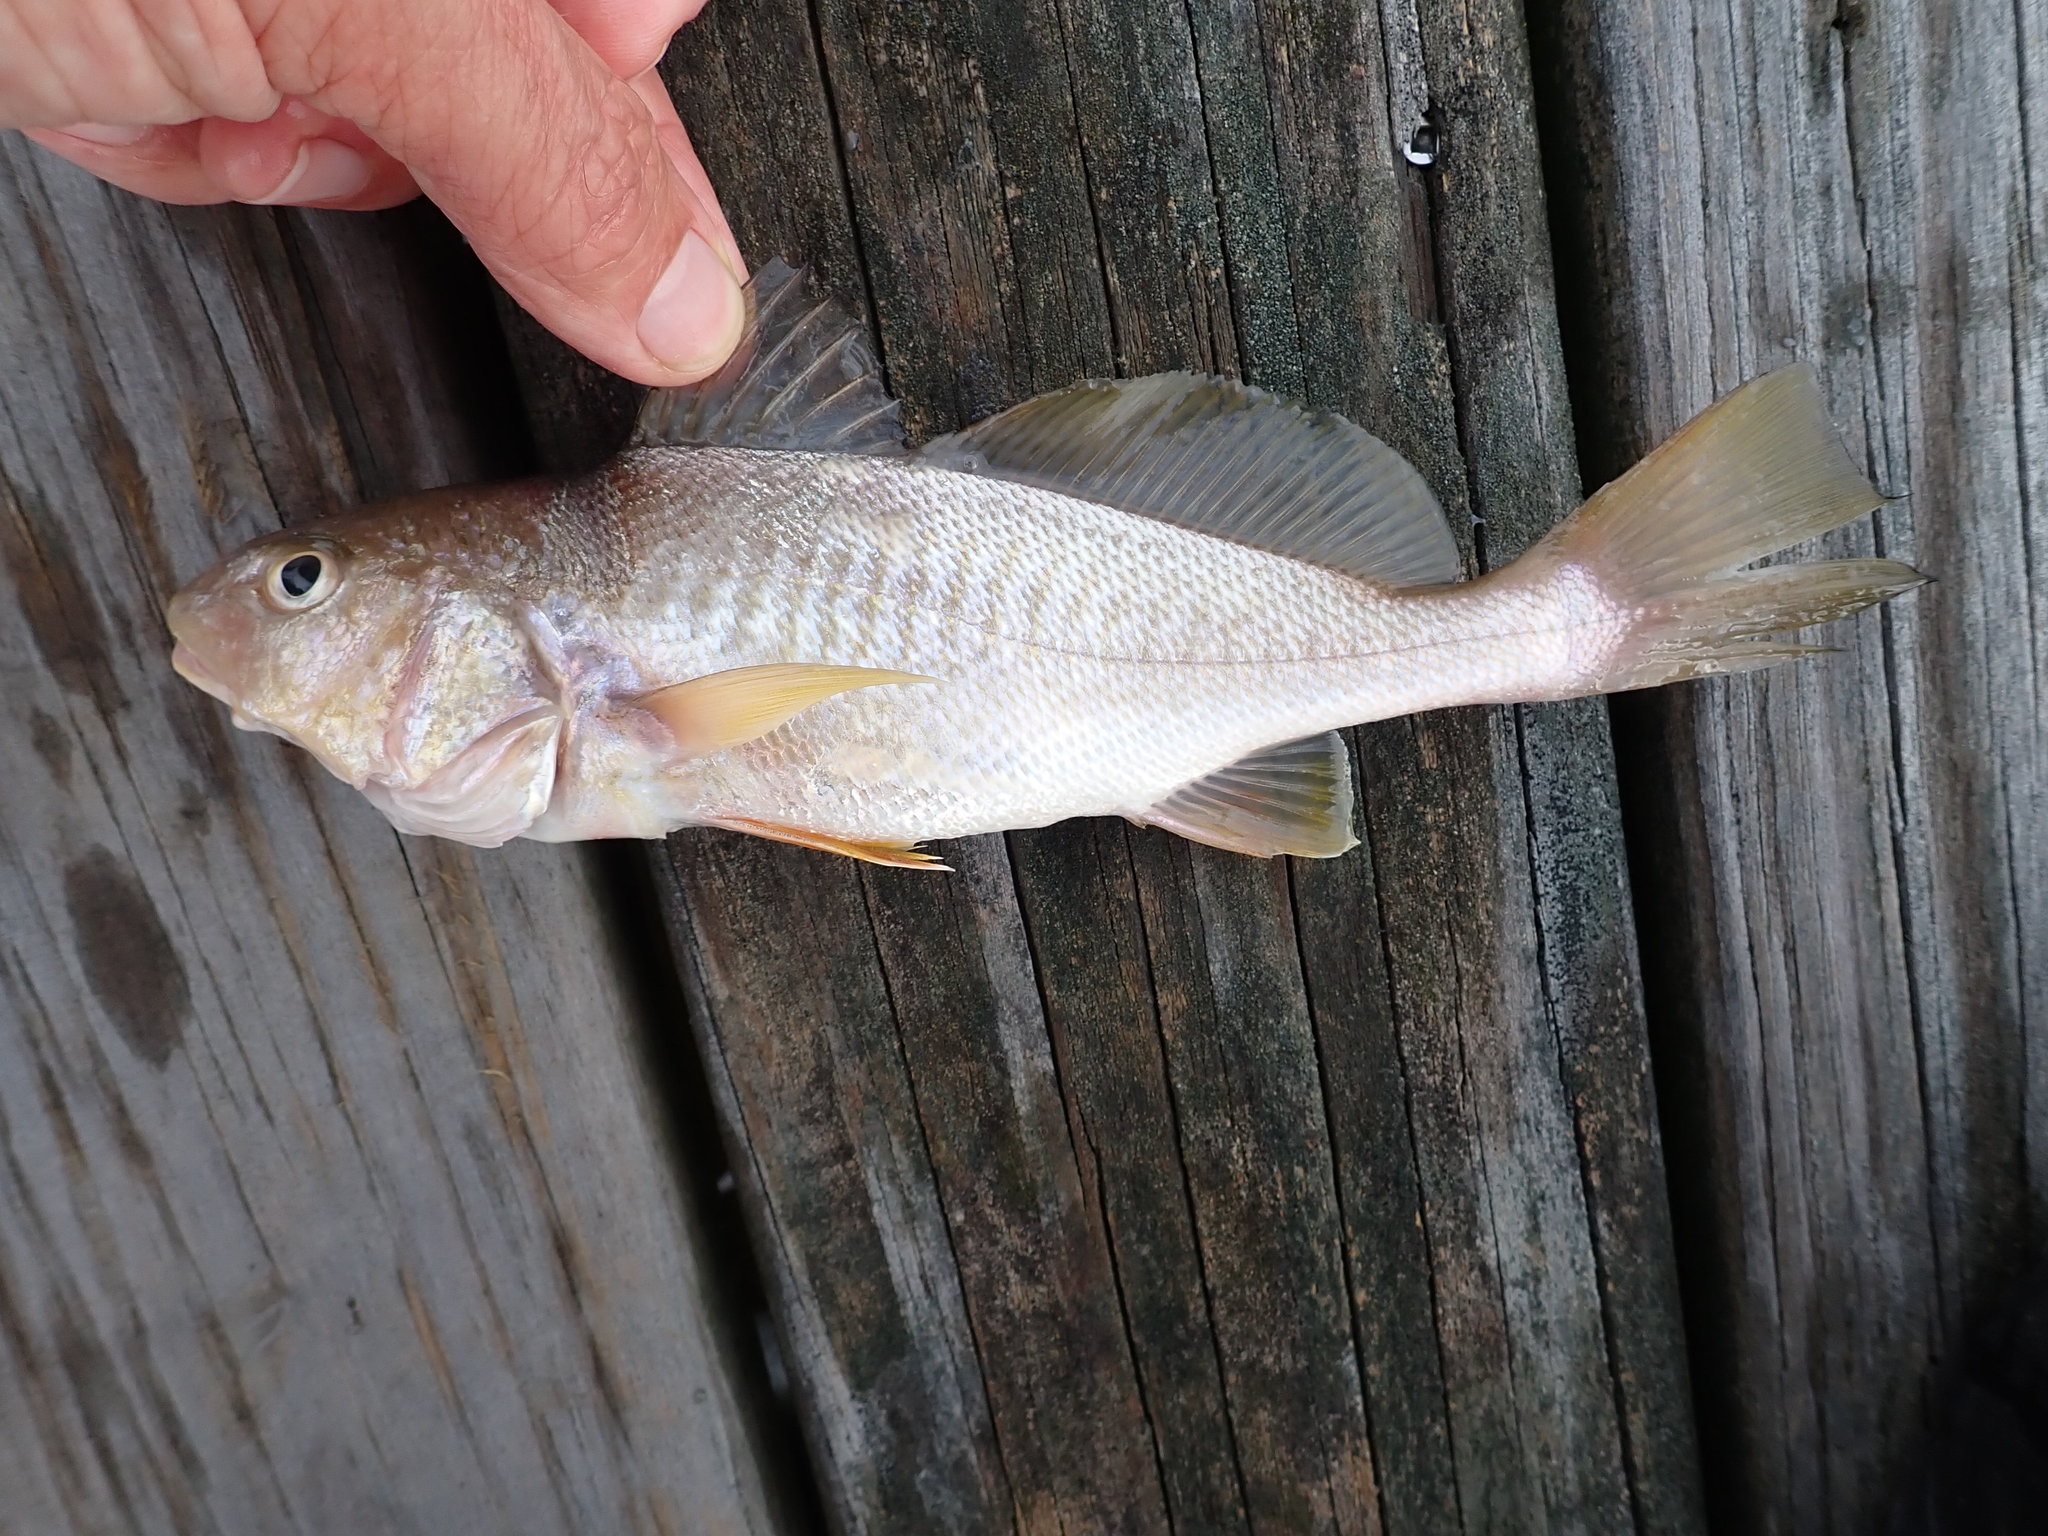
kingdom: Animalia
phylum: Chordata
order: Perciformes
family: Sciaenidae
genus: Micropogonias
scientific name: Micropogonias undulatus
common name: Atlantic croaker
